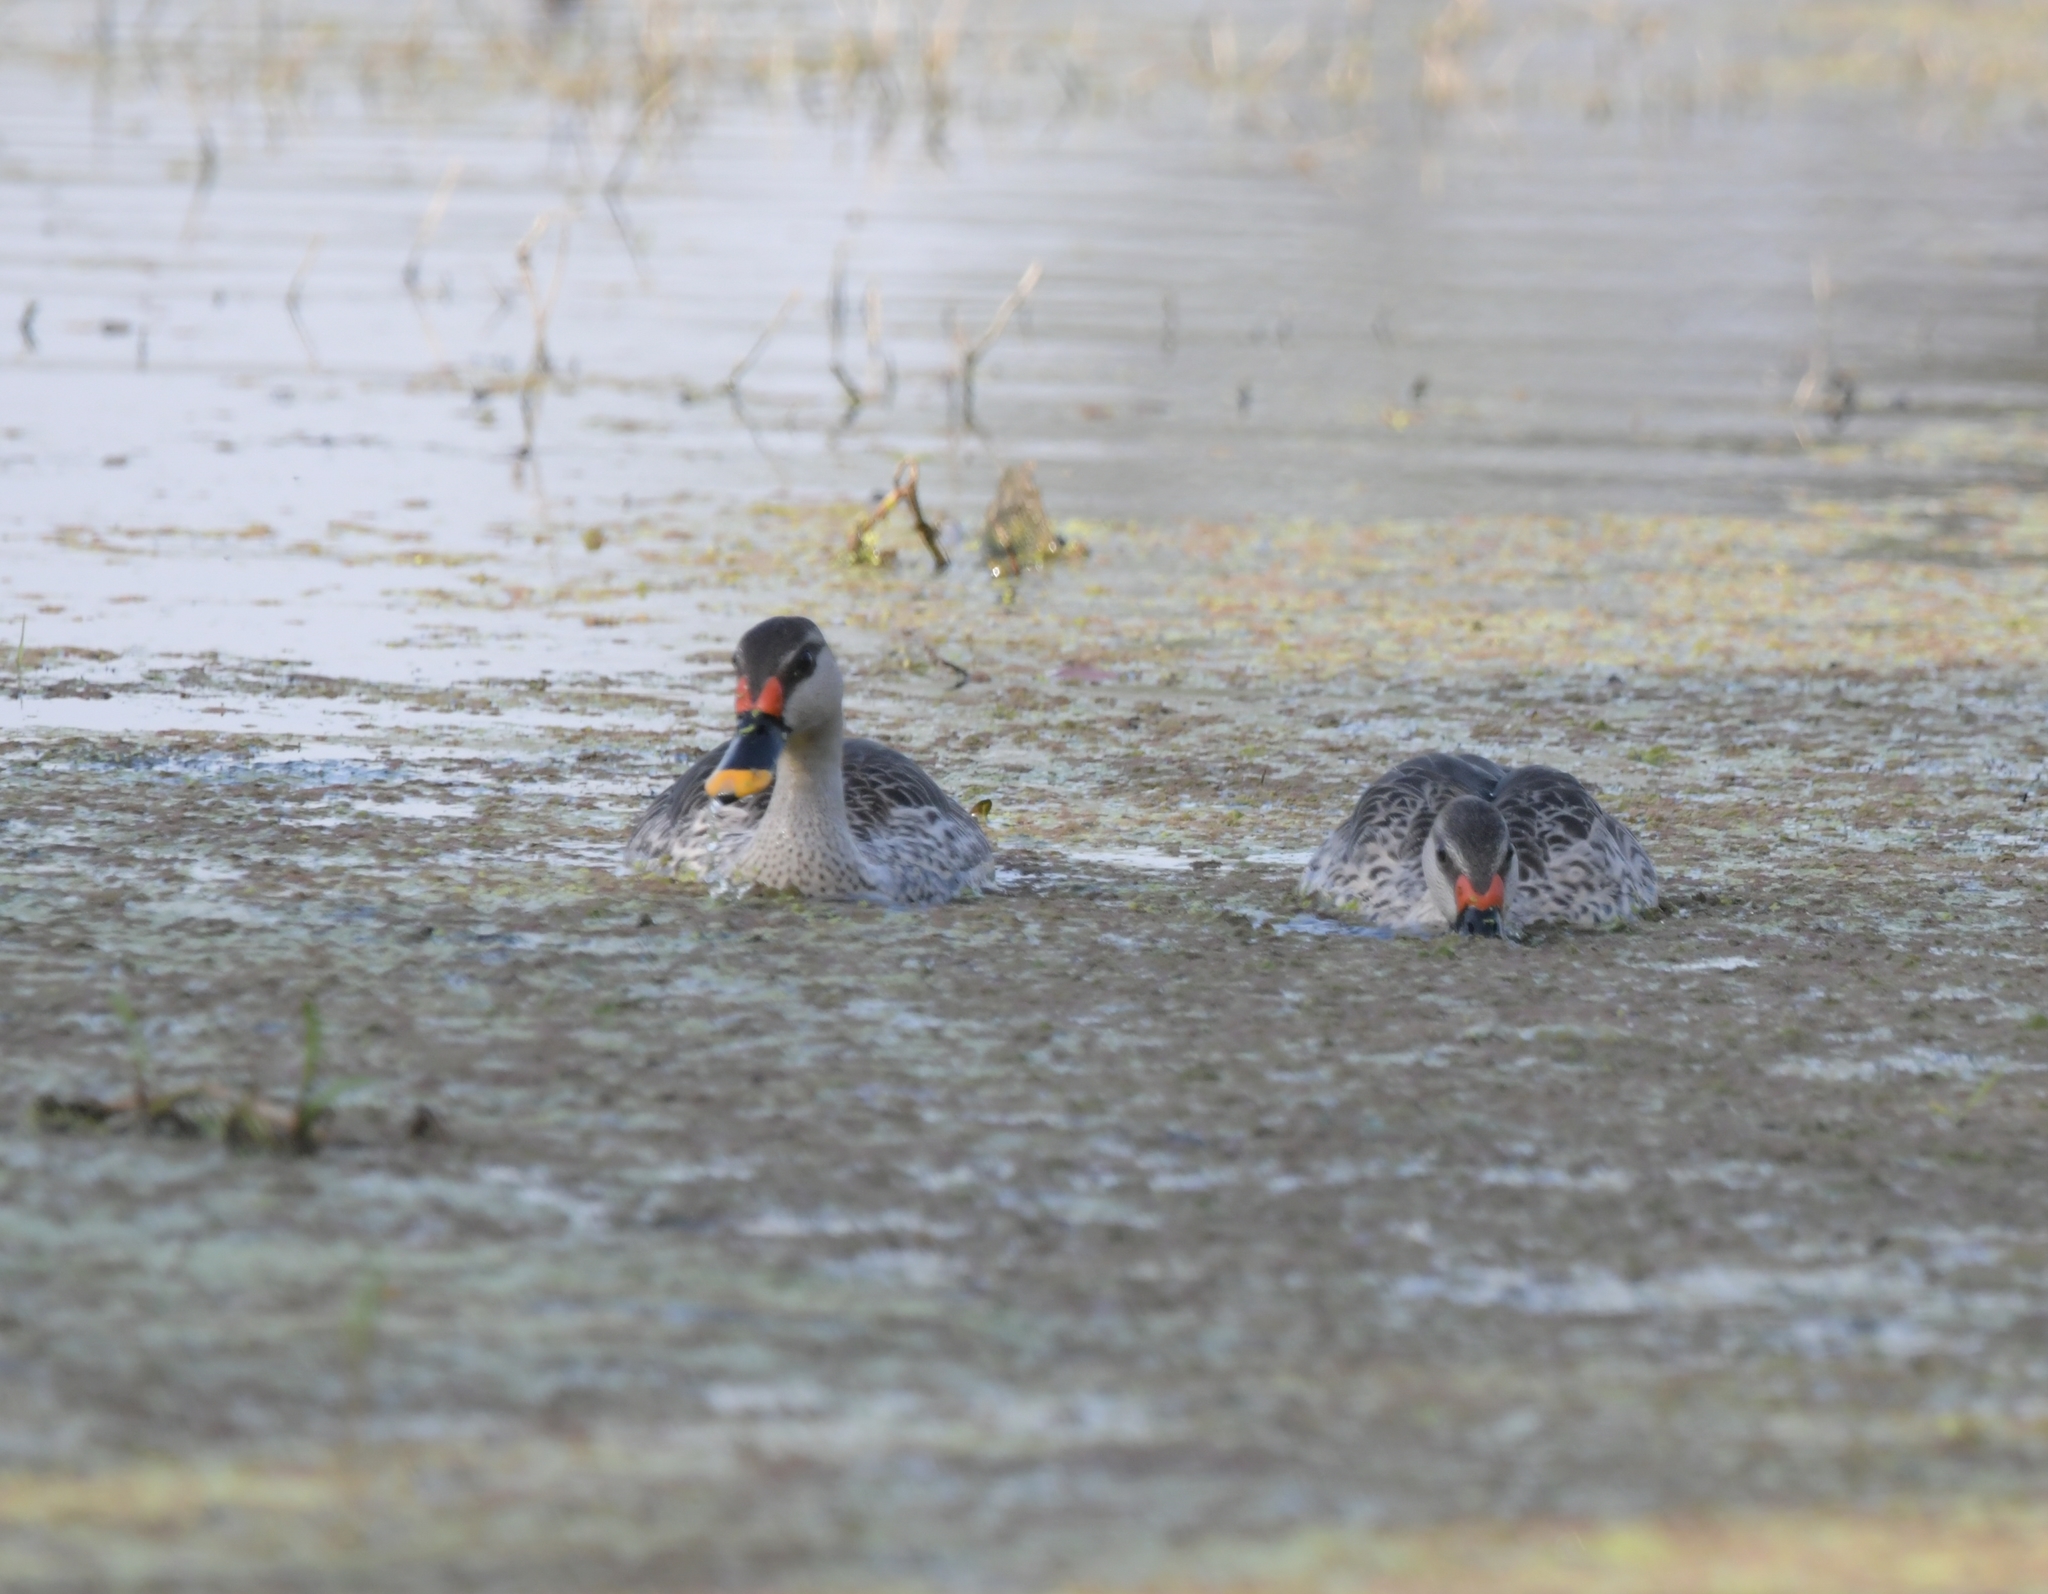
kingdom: Animalia
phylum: Chordata
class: Aves
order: Anseriformes
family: Anatidae
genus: Anas
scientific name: Anas poecilorhyncha
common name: Indian spot-billed duck
